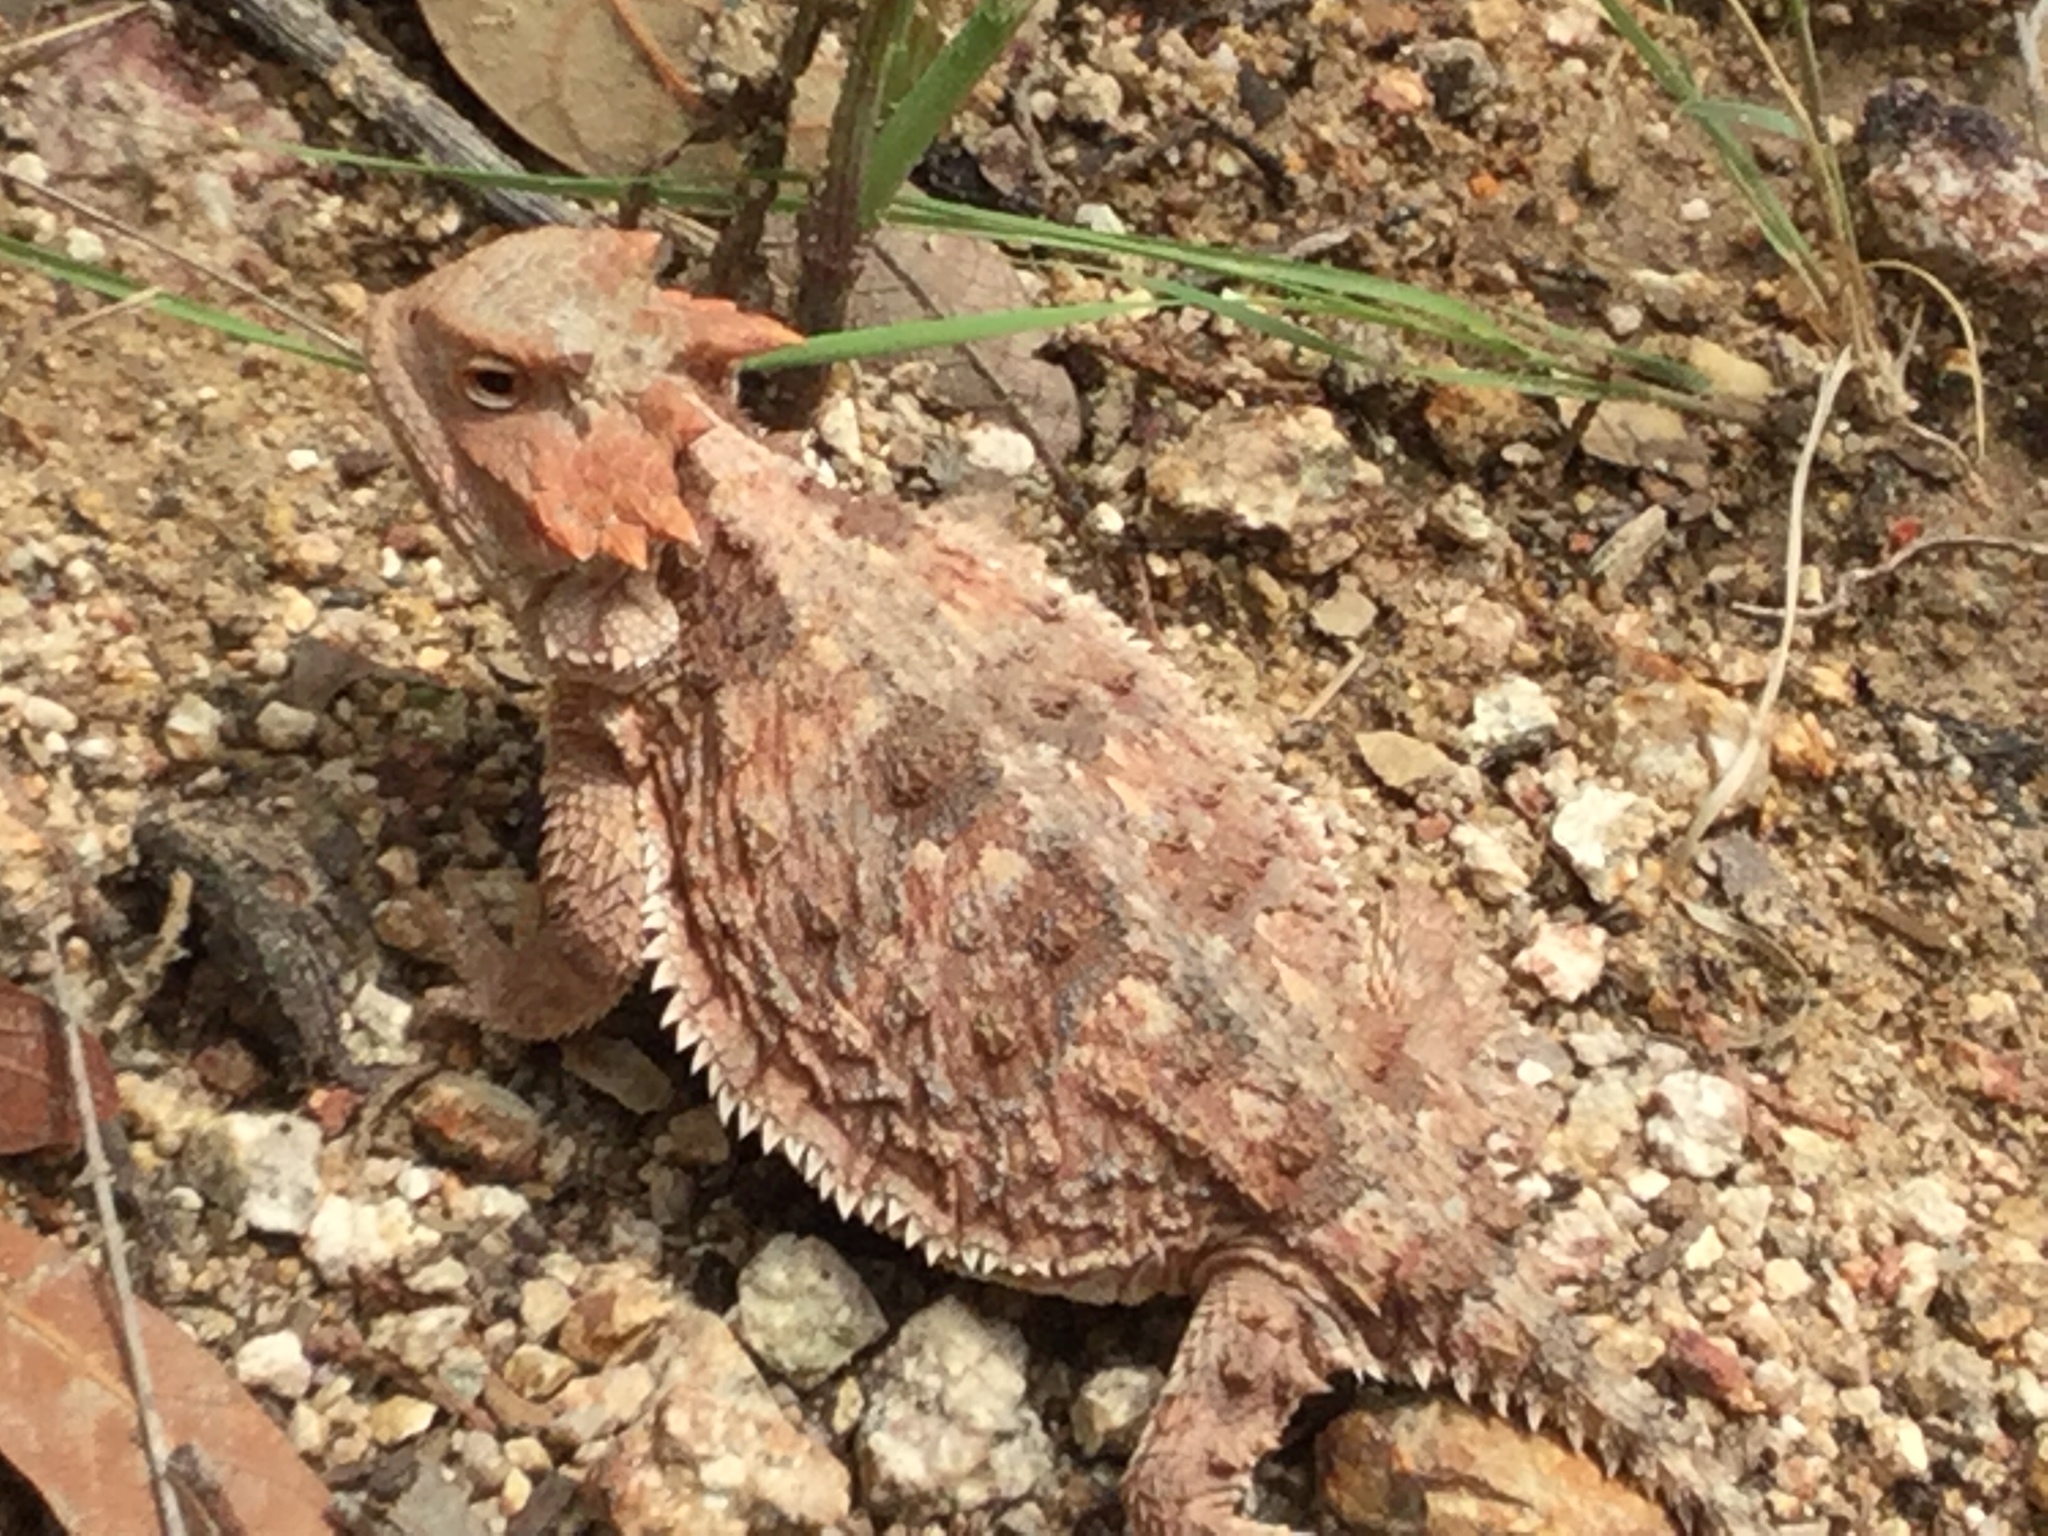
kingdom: Animalia
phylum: Chordata
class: Squamata
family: Phrynosomatidae
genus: Phrynosoma
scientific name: Phrynosoma hernandesi
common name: Greater short-horned lizard
